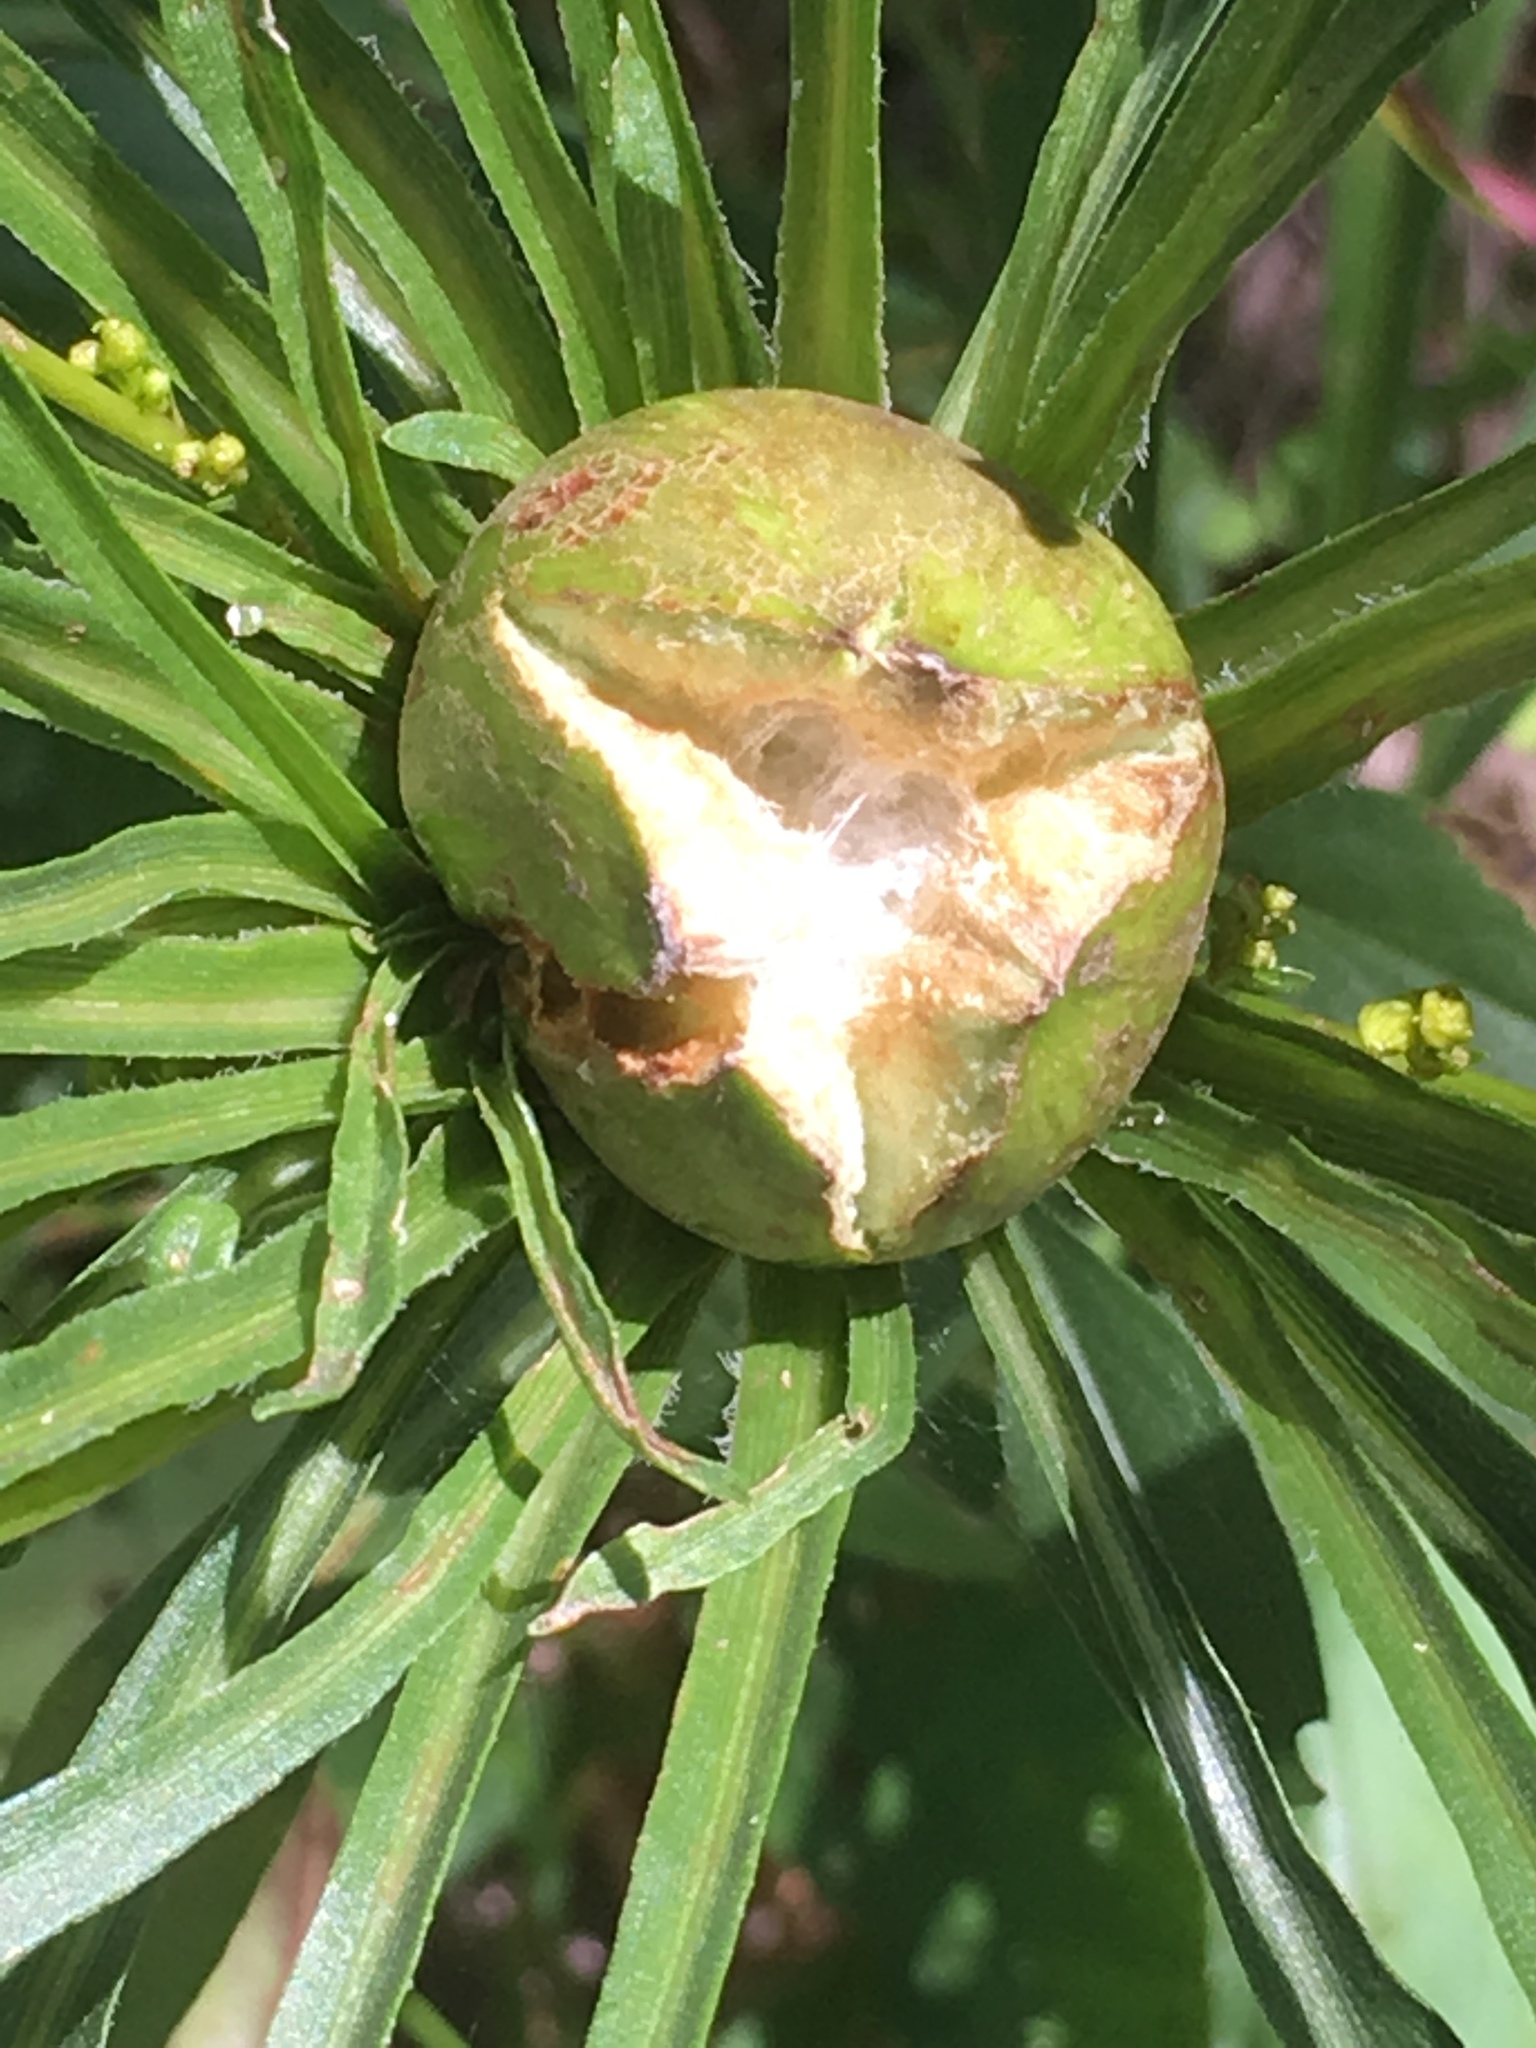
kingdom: Animalia
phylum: Arthropoda
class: Insecta
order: Diptera
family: Cecidomyiidae
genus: Rhopalomyia
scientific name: Rhopalomyia hirtipes
